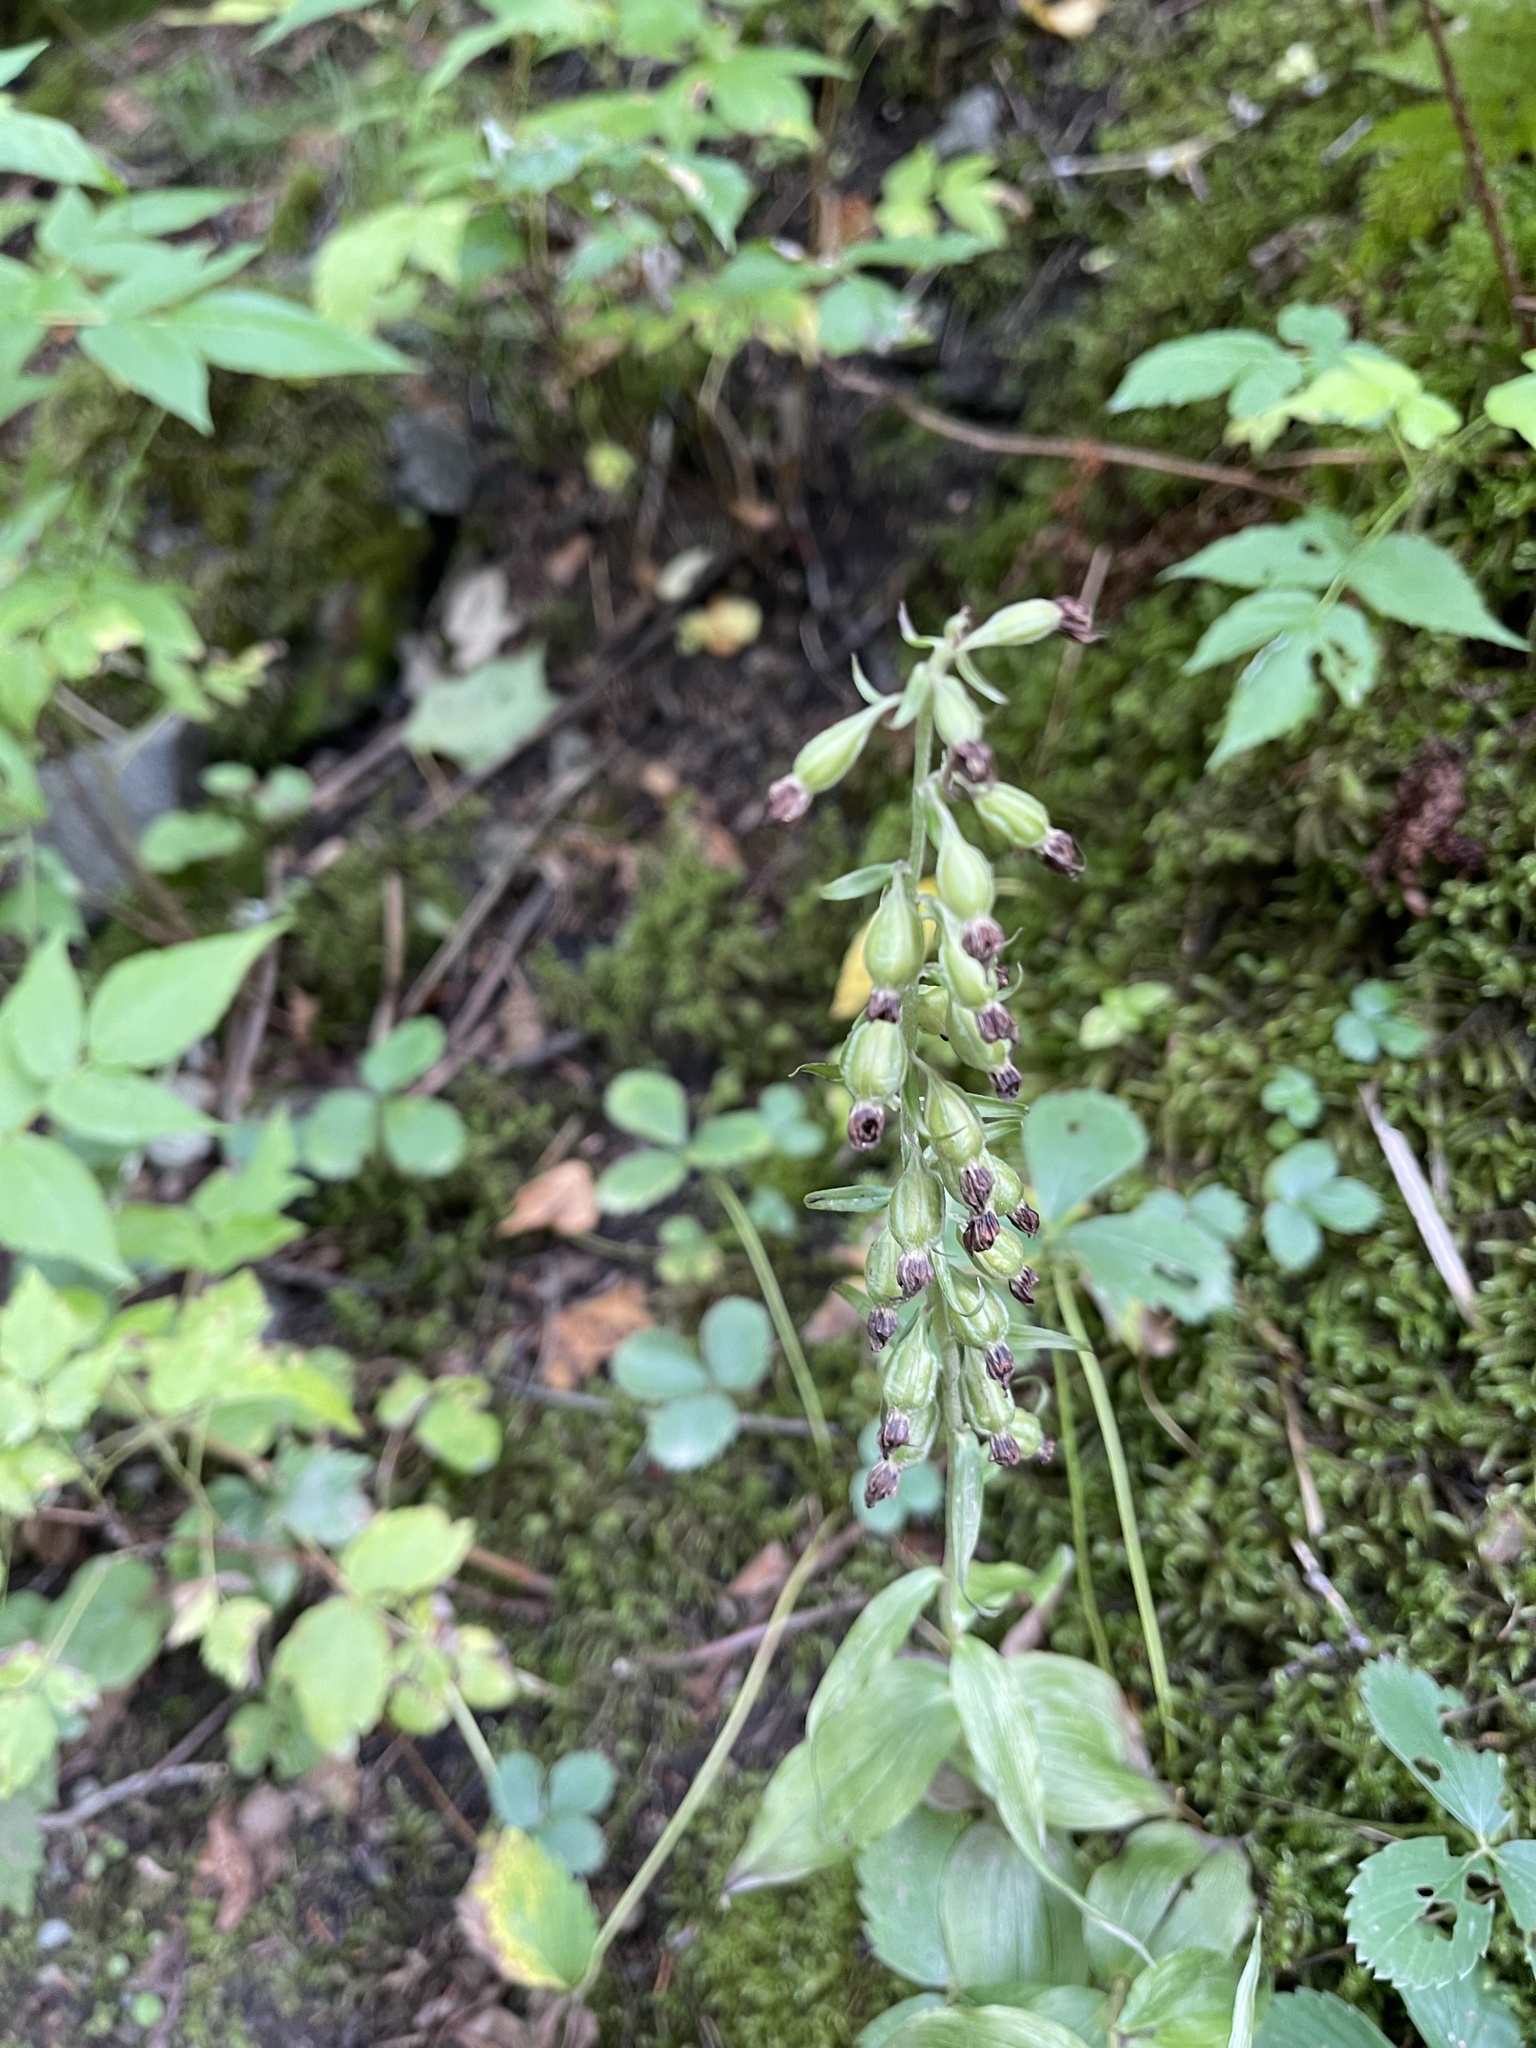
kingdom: Plantae
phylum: Tracheophyta
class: Liliopsida
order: Asparagales
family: Orchidaceae
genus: Epipactis
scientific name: Epipactis helleborine
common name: Broad-leaved helleborine
